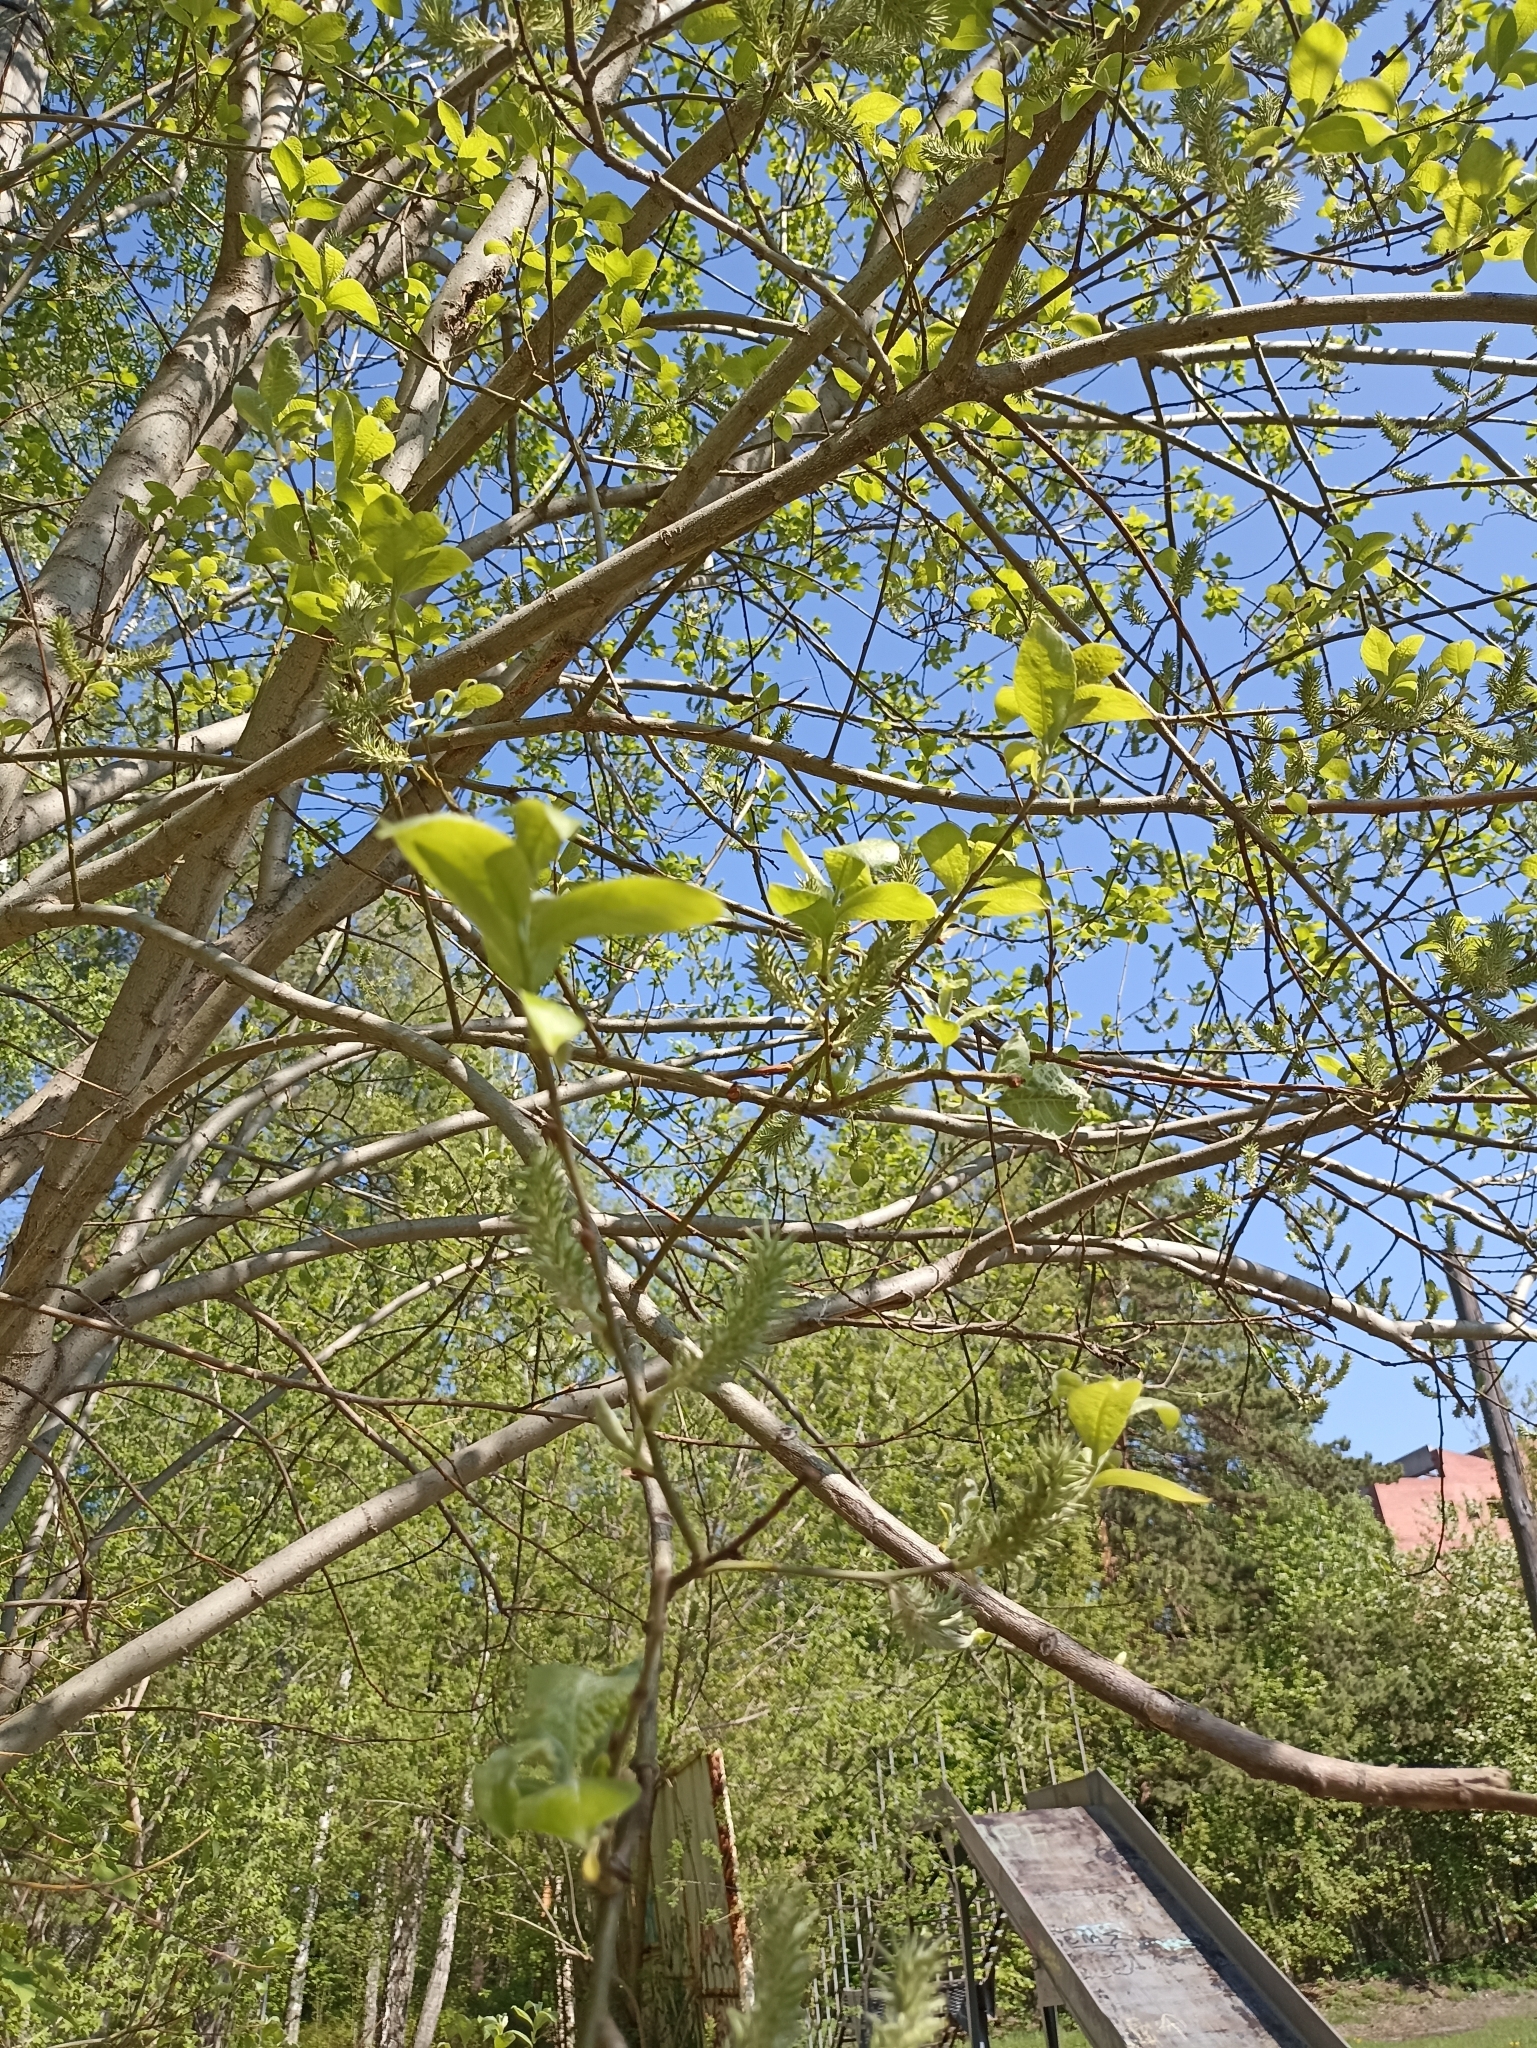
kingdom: Plantae
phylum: Tracheophyta
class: Magnoliopsida
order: Malpighiales
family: Salicaceae
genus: Salix
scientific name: Salix caprea
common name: Goat willow
